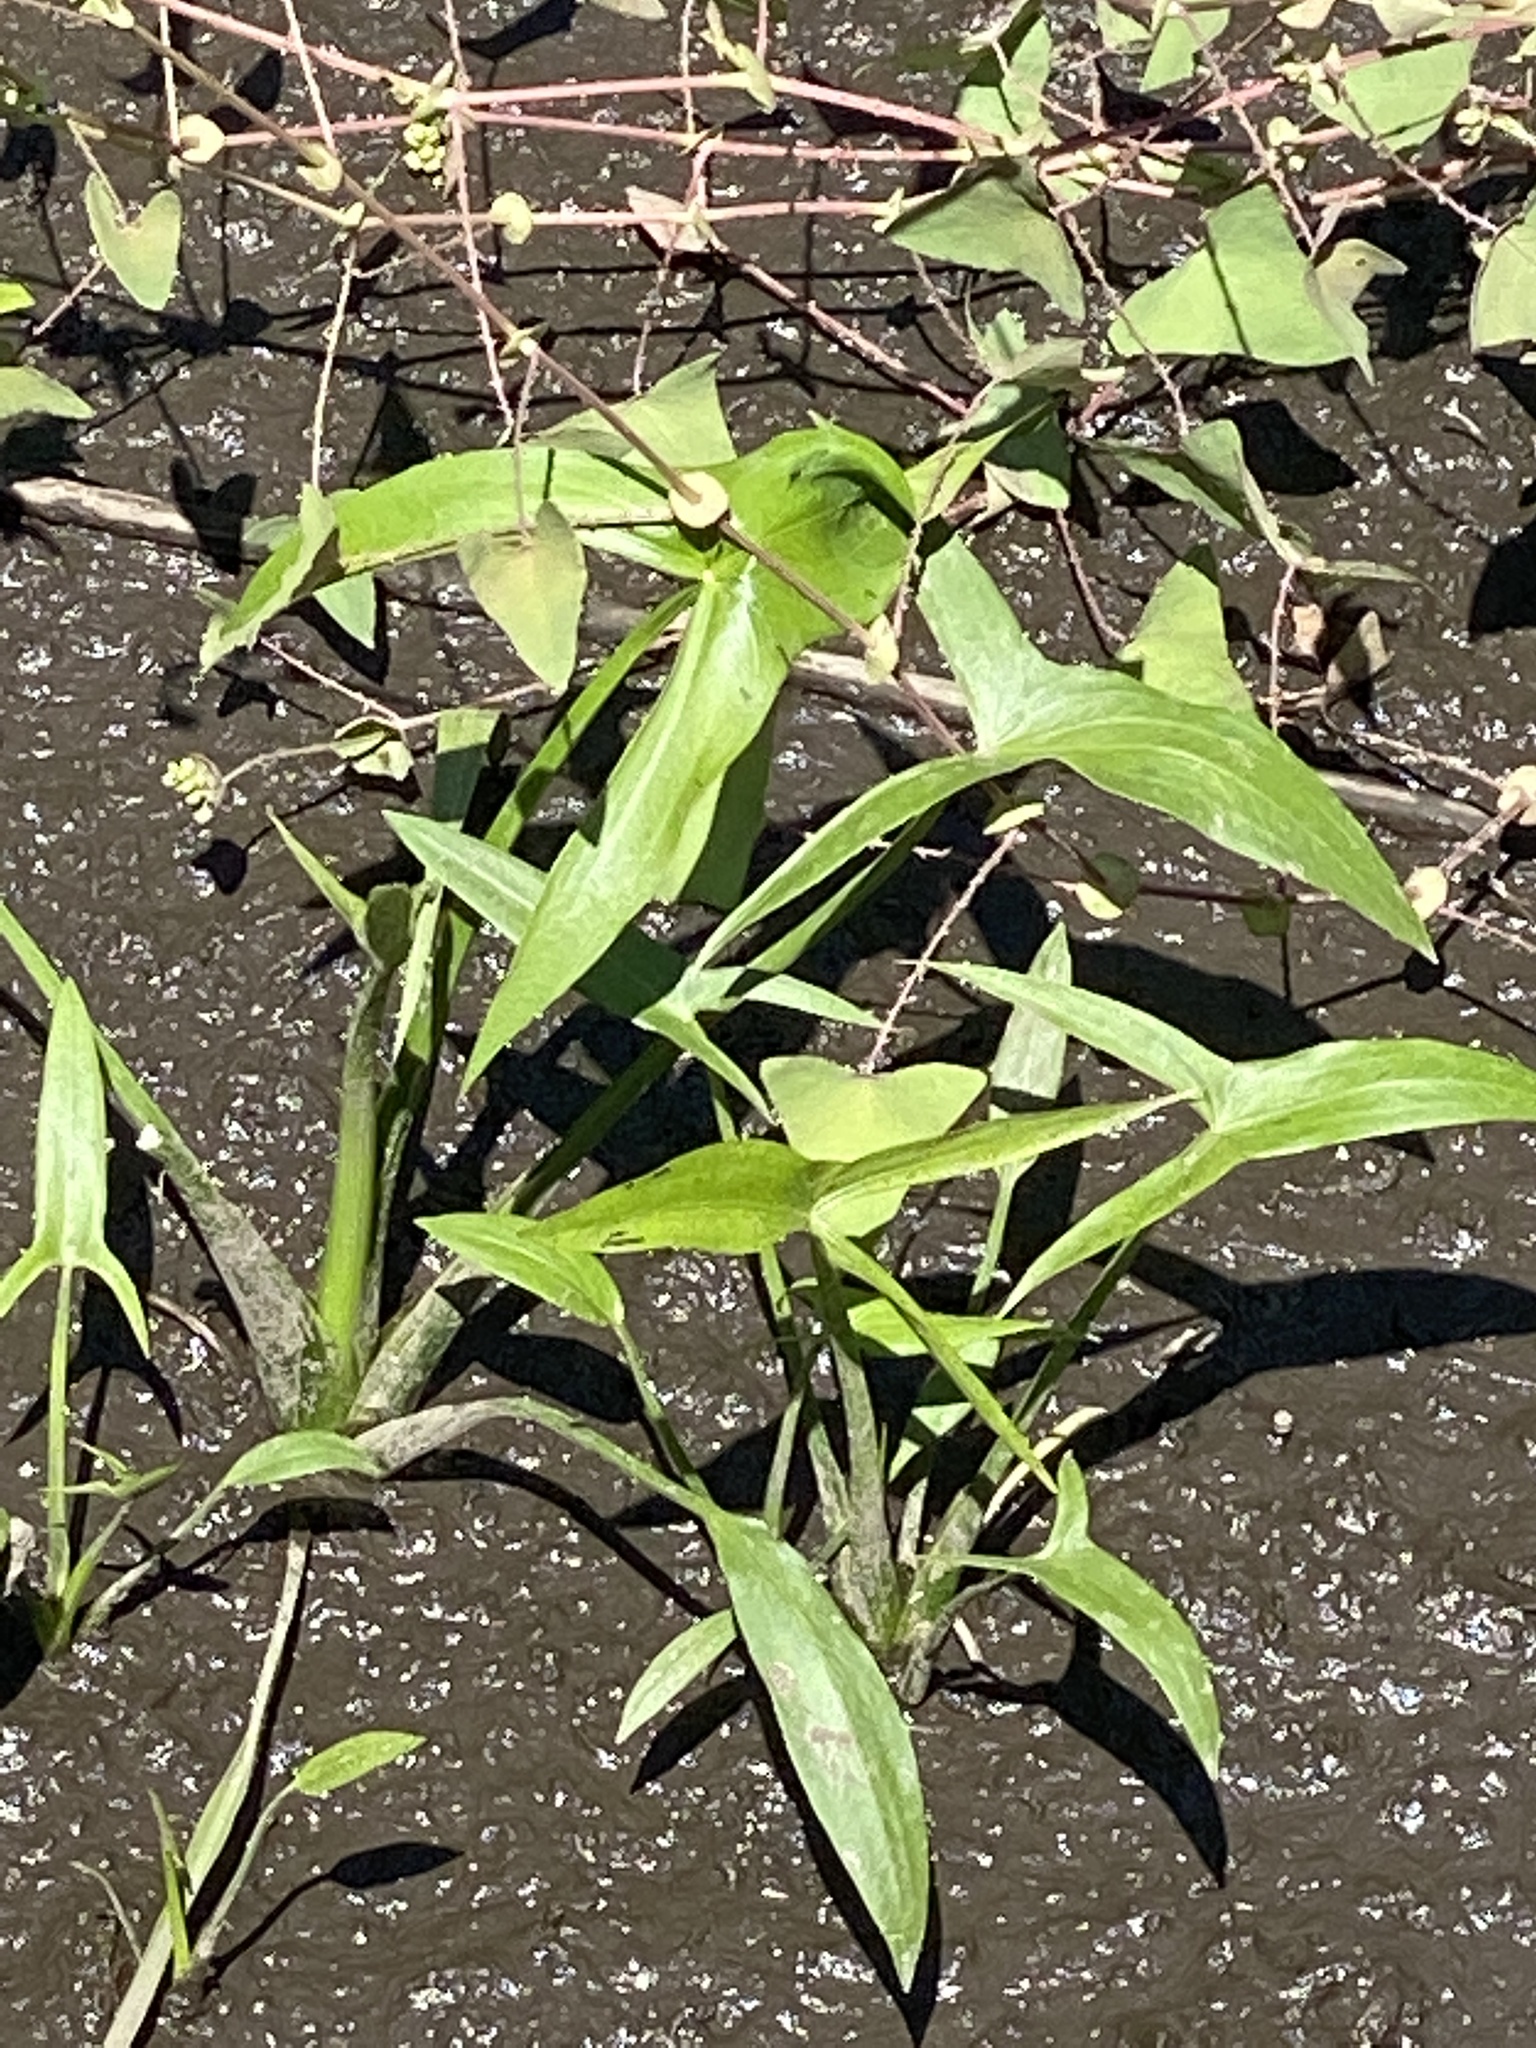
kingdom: Plantae
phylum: Tracheophyta
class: Liliopsida
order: Alismatales
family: Alismataceae
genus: Sagittaria
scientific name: Sagittaria latifolia
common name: Duck-potato
